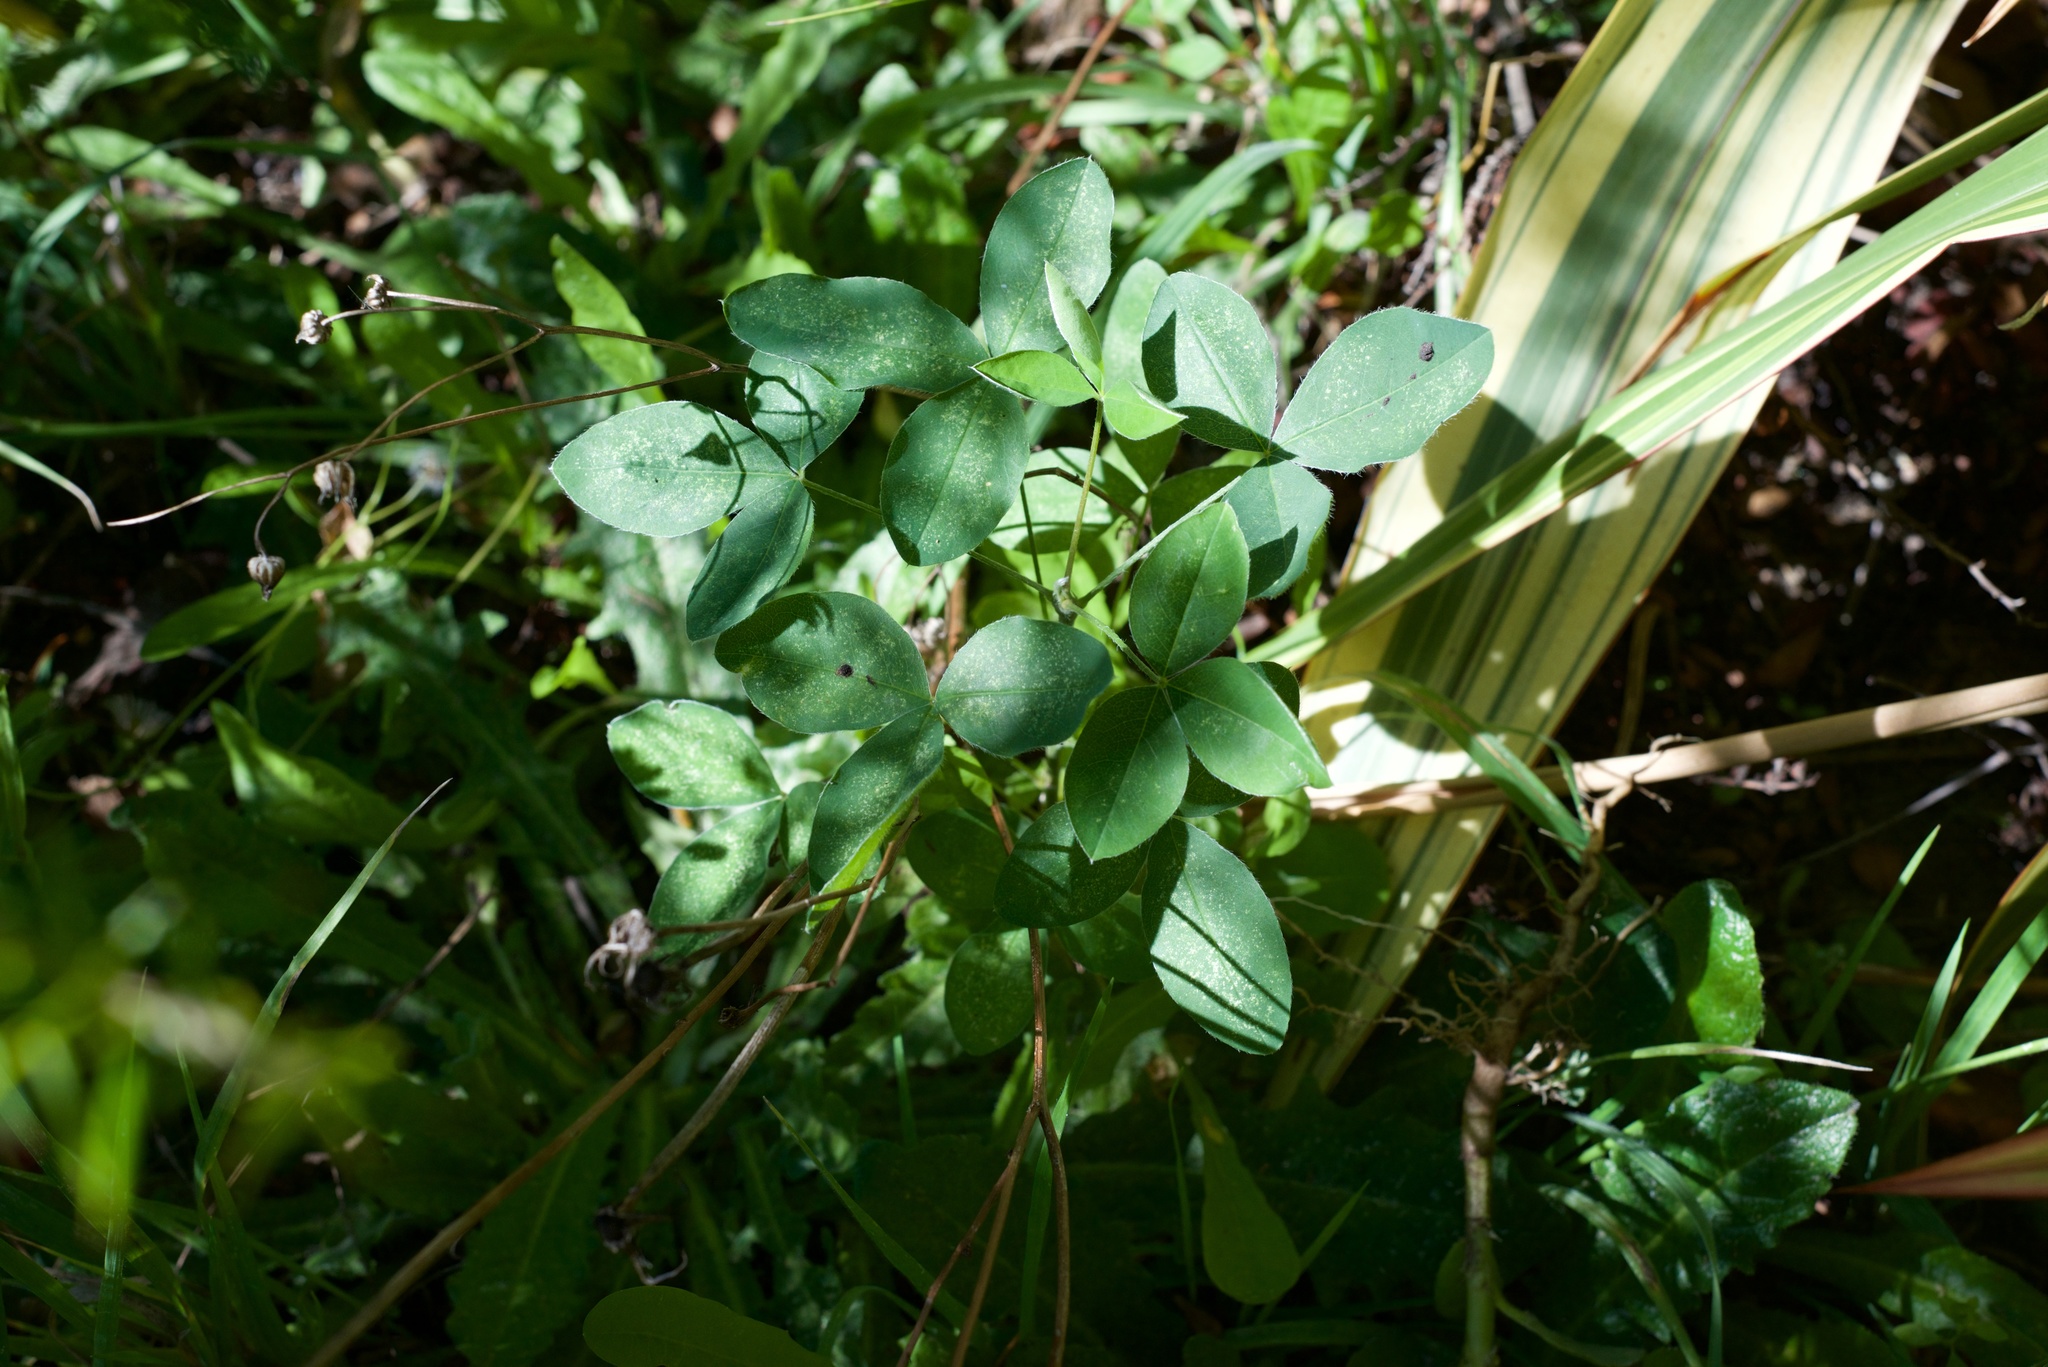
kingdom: Plantae
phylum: Tracheophyta
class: Magnoliopsida
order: Fabales
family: Fabaceae
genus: Laburnum
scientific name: Laburnum anagyroides
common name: Laburnum
